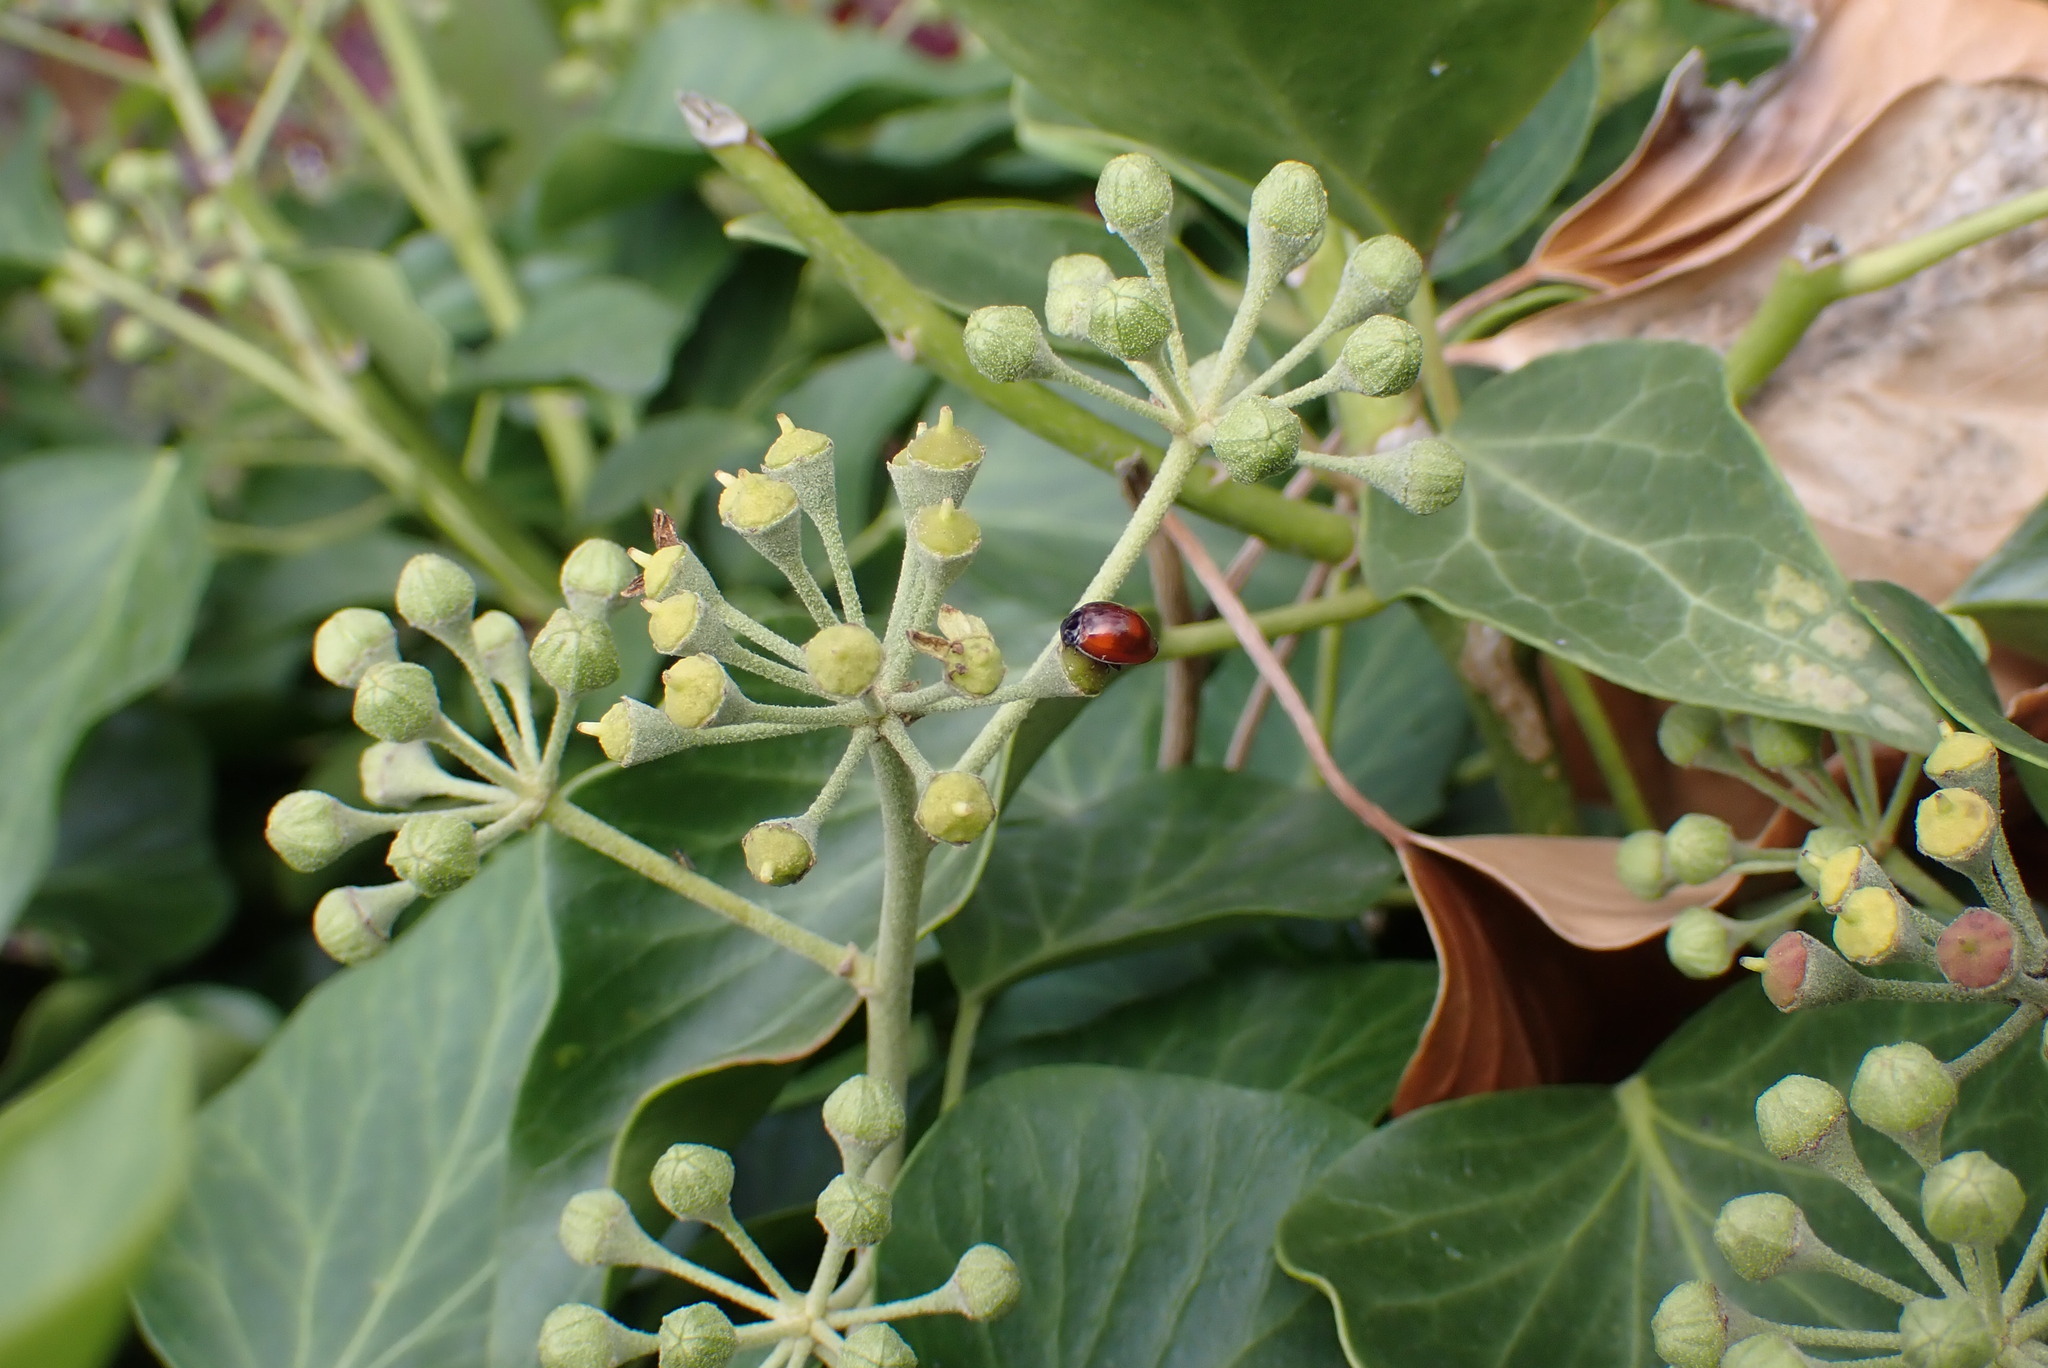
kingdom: Animalia
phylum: Arthropoda
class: Insecta
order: Coleoptera
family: Coccinellidae
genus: Brumus
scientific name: Brumus quadripustulatus
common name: Ladybird beetle
